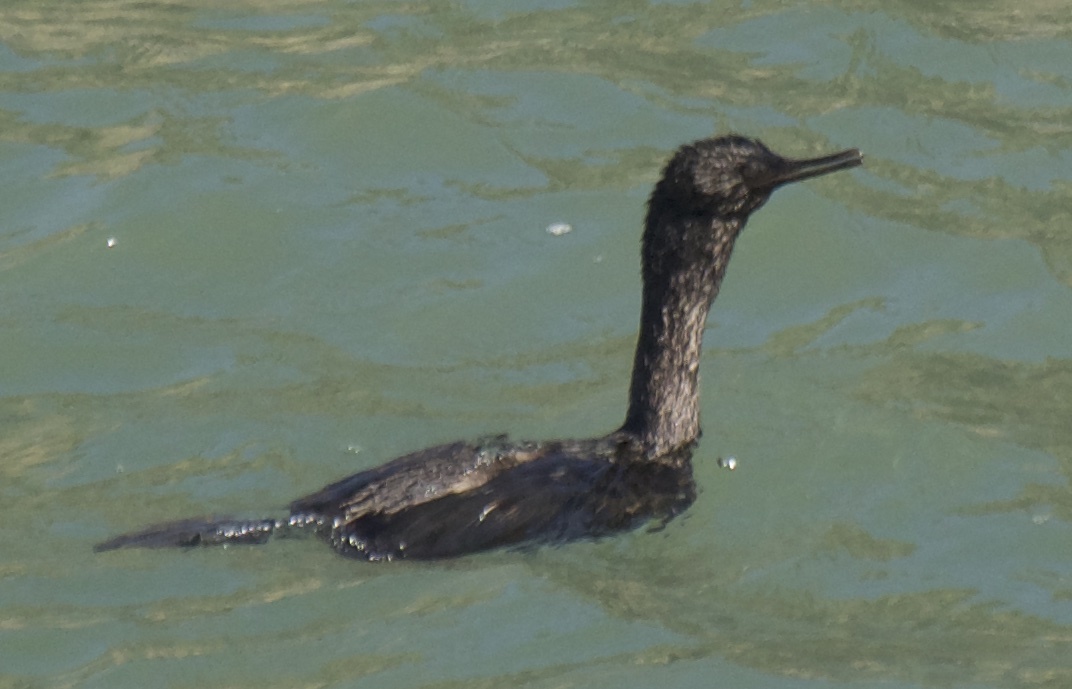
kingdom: Animalia
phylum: Chordata
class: Aves
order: Suliformes
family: Phalacrocoracidae
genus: Phalacrocorax
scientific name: Phalacrocorax pelagicus
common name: Pelagic cormorant
